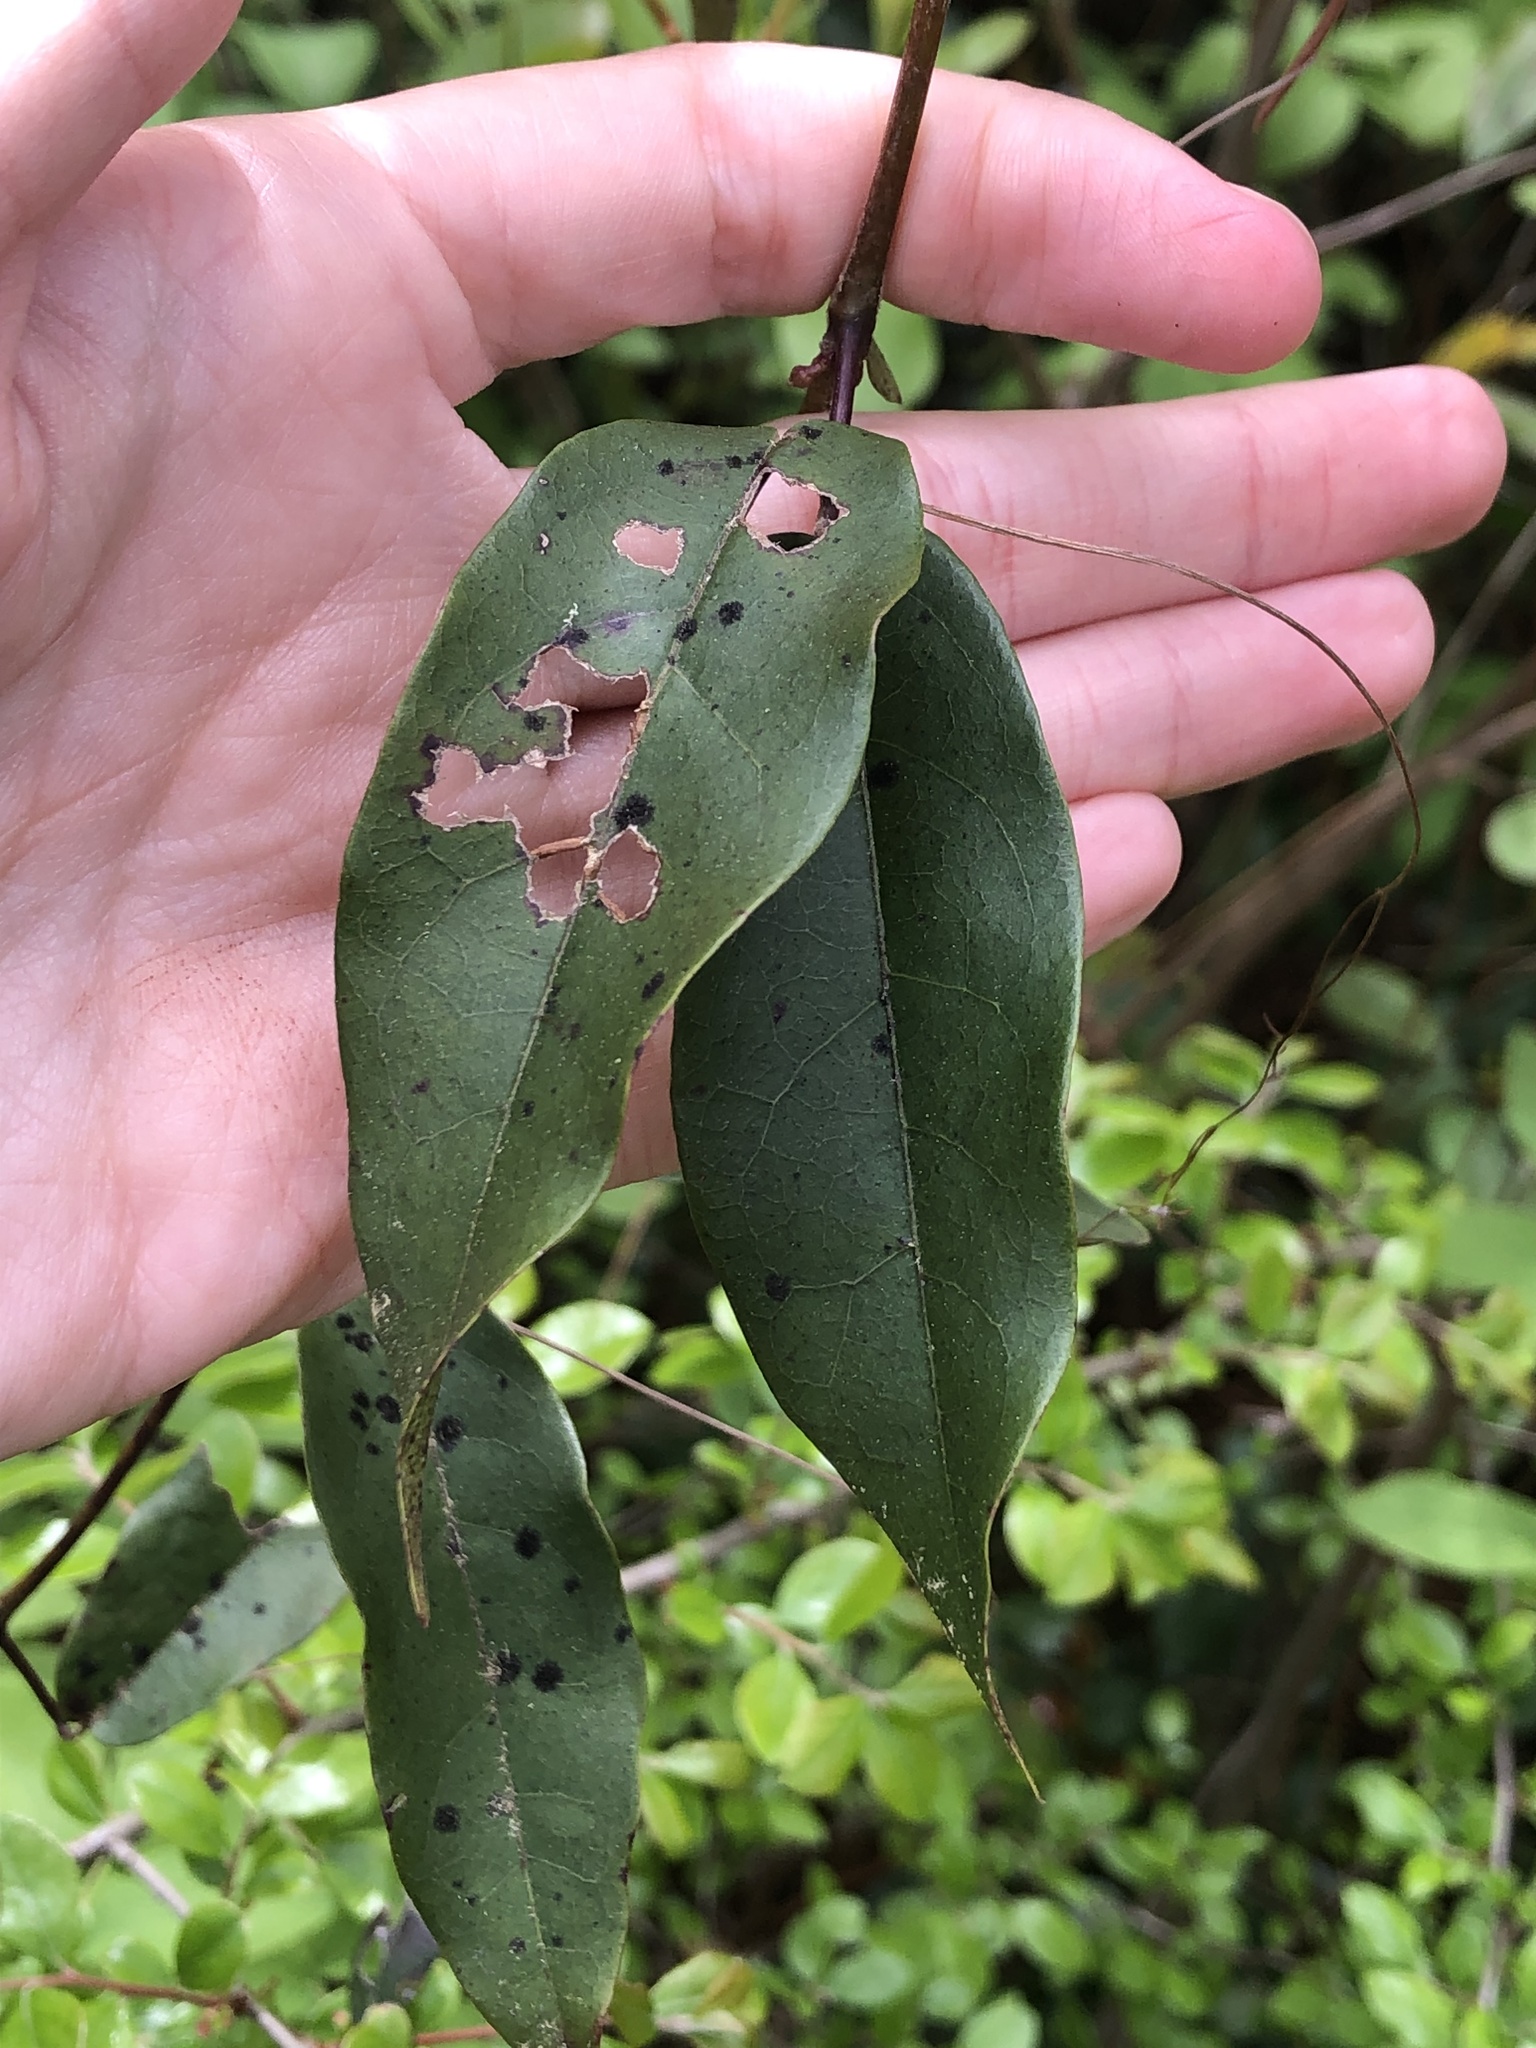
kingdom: Plantae
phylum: Tracheophyta
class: Magnoliopsida
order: Lamiales
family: Bignoniaceae
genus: Bignonia
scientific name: Bignonia capreolata
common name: Crossvine
